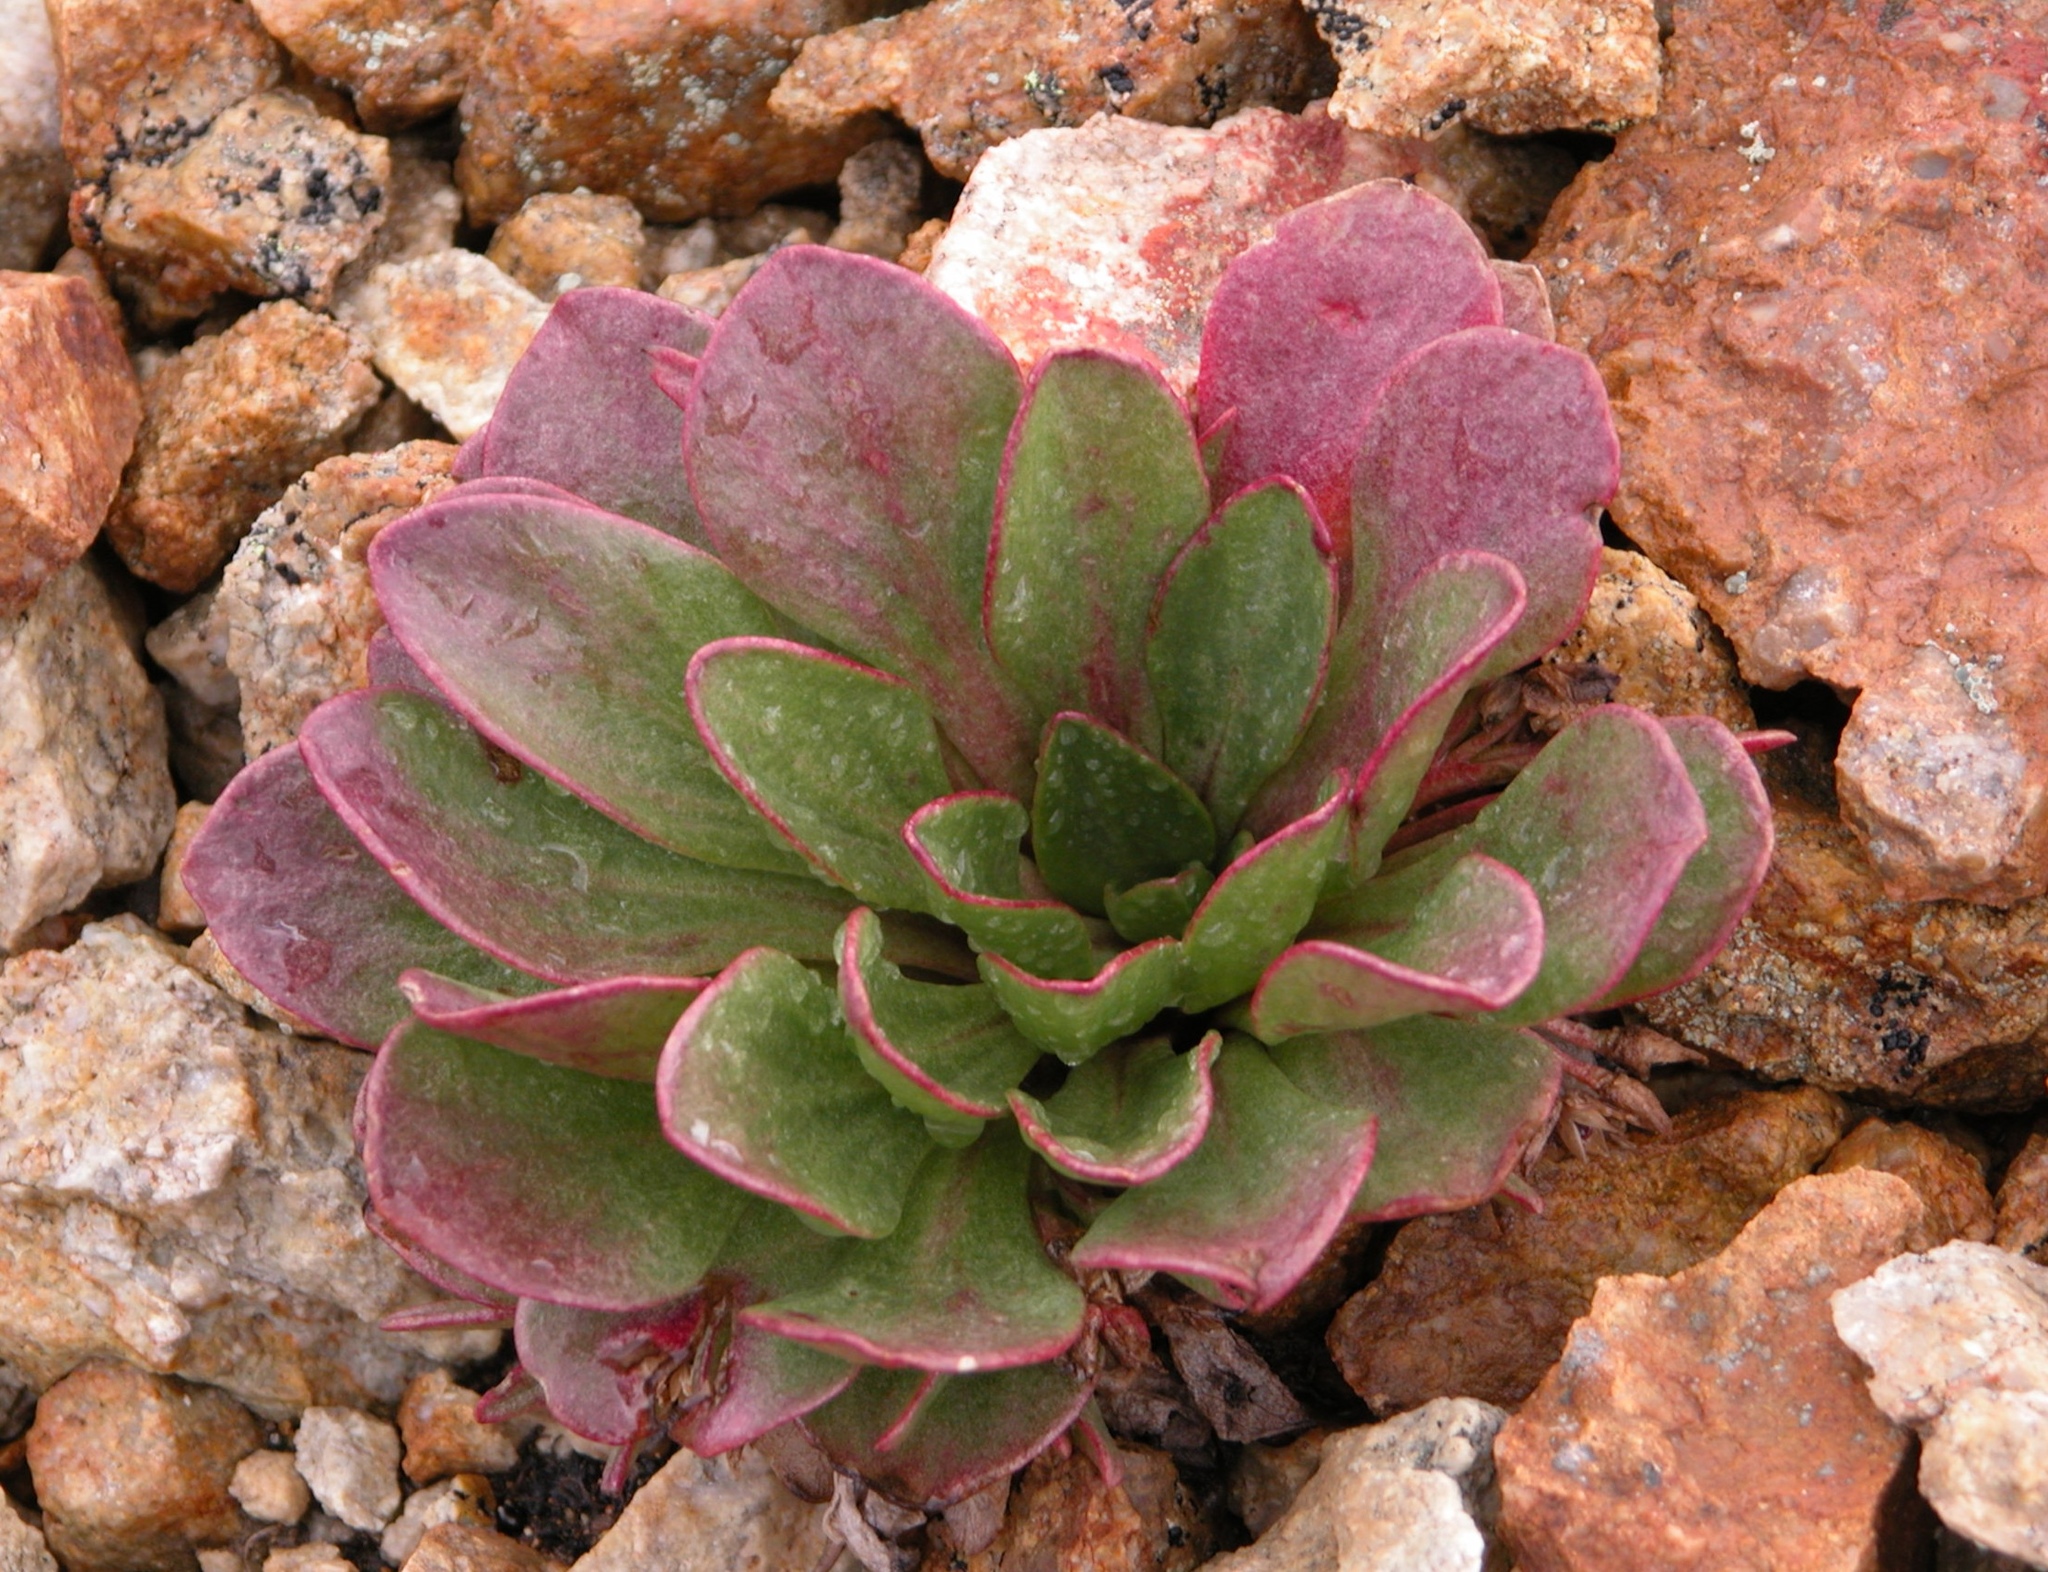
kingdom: Plantae
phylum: Tracheophyta
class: Magnoliopsida
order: Caryophyllales
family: Montiaceae
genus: Claytonia
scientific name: Claytonia megarhiza
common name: Alpine spring beauty
